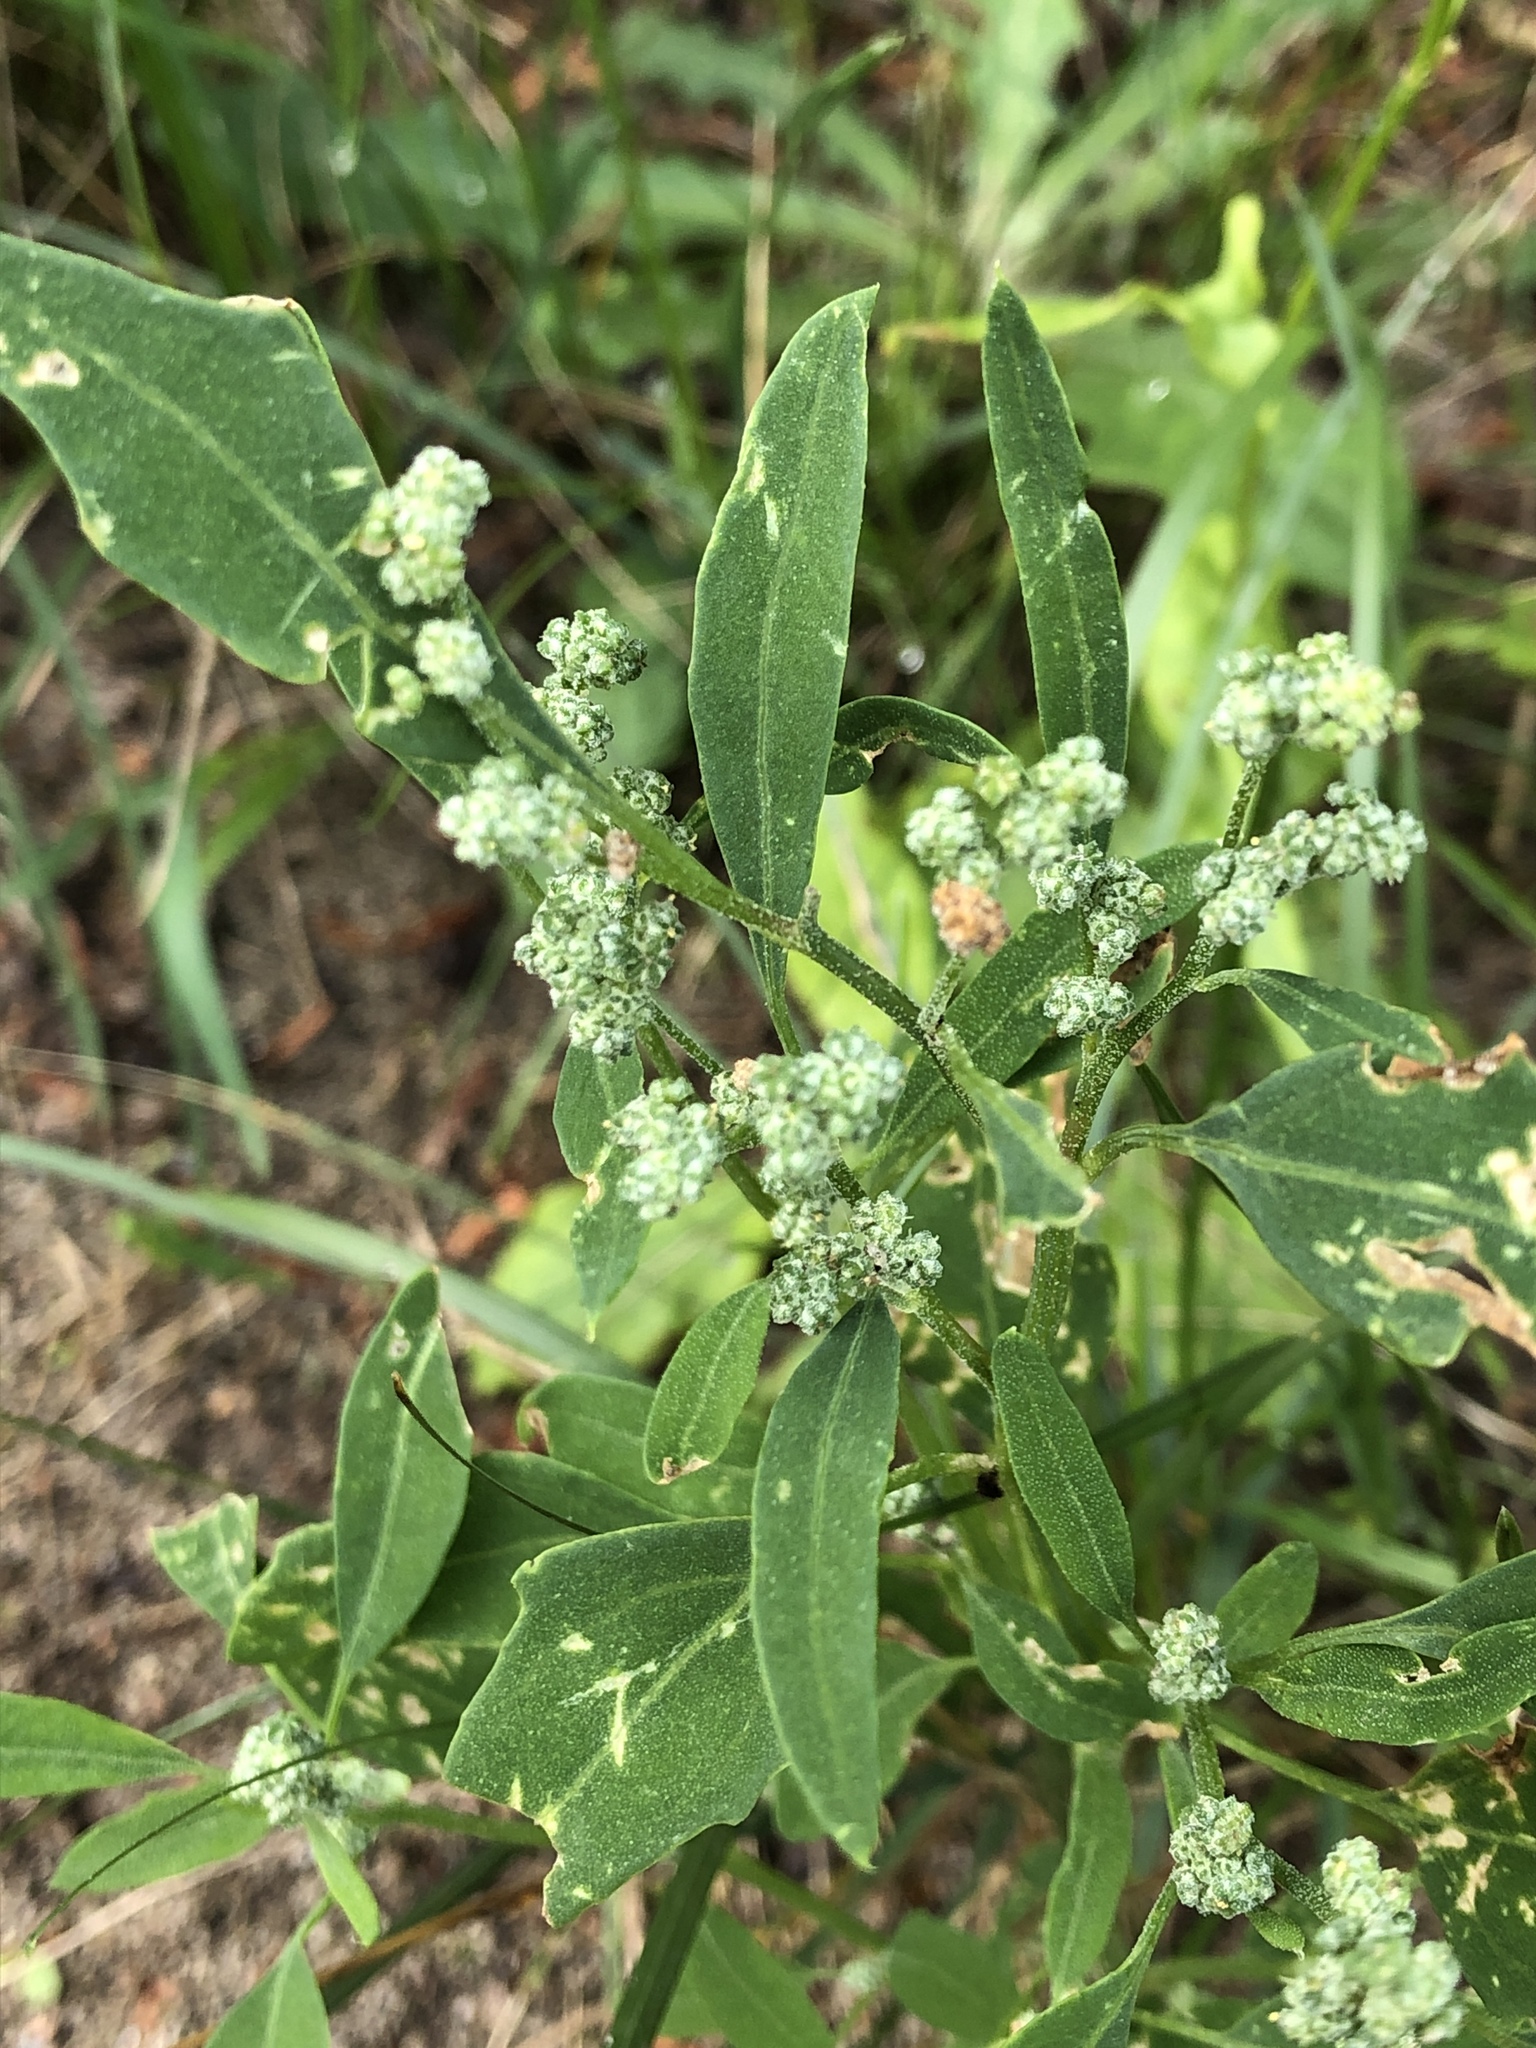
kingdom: Plantae
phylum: Tracheophyta
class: Magnoliopsida
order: Caryophyllales
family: Amaranthaceae
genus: Chenopodium
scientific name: Chenopodium album
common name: Fat-hen
